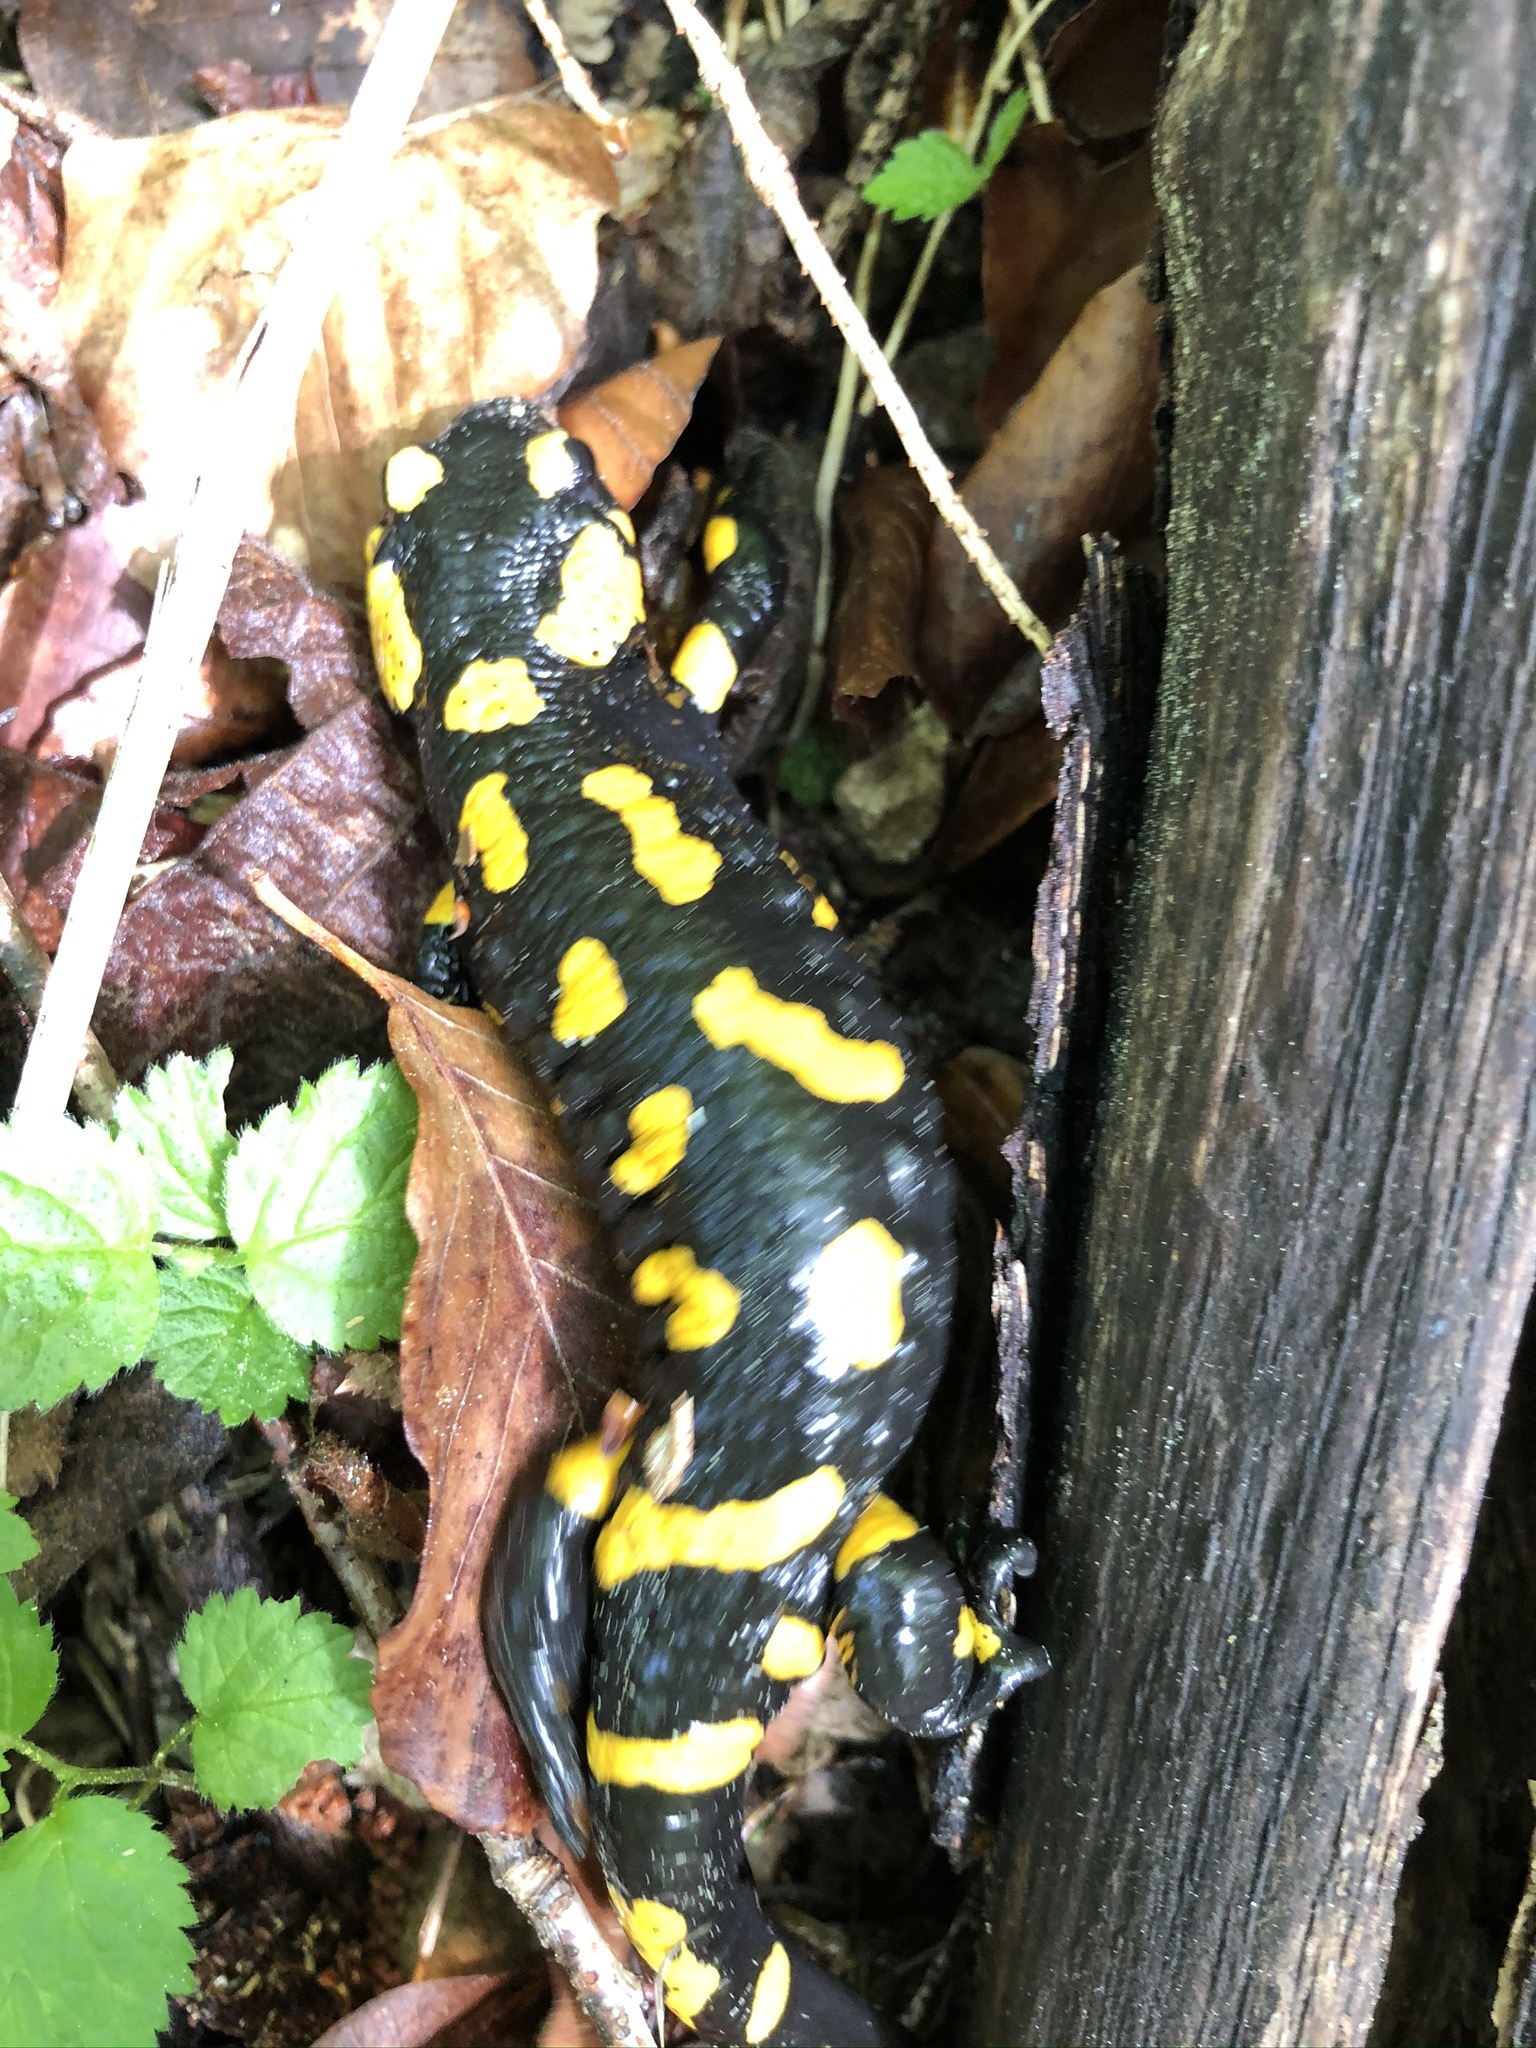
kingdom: Animalia
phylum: Chordata
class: Amphibia
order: Caudata
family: Salamandridae
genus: Salamandra
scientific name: Salamandra salamandra
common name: Fire salamander
